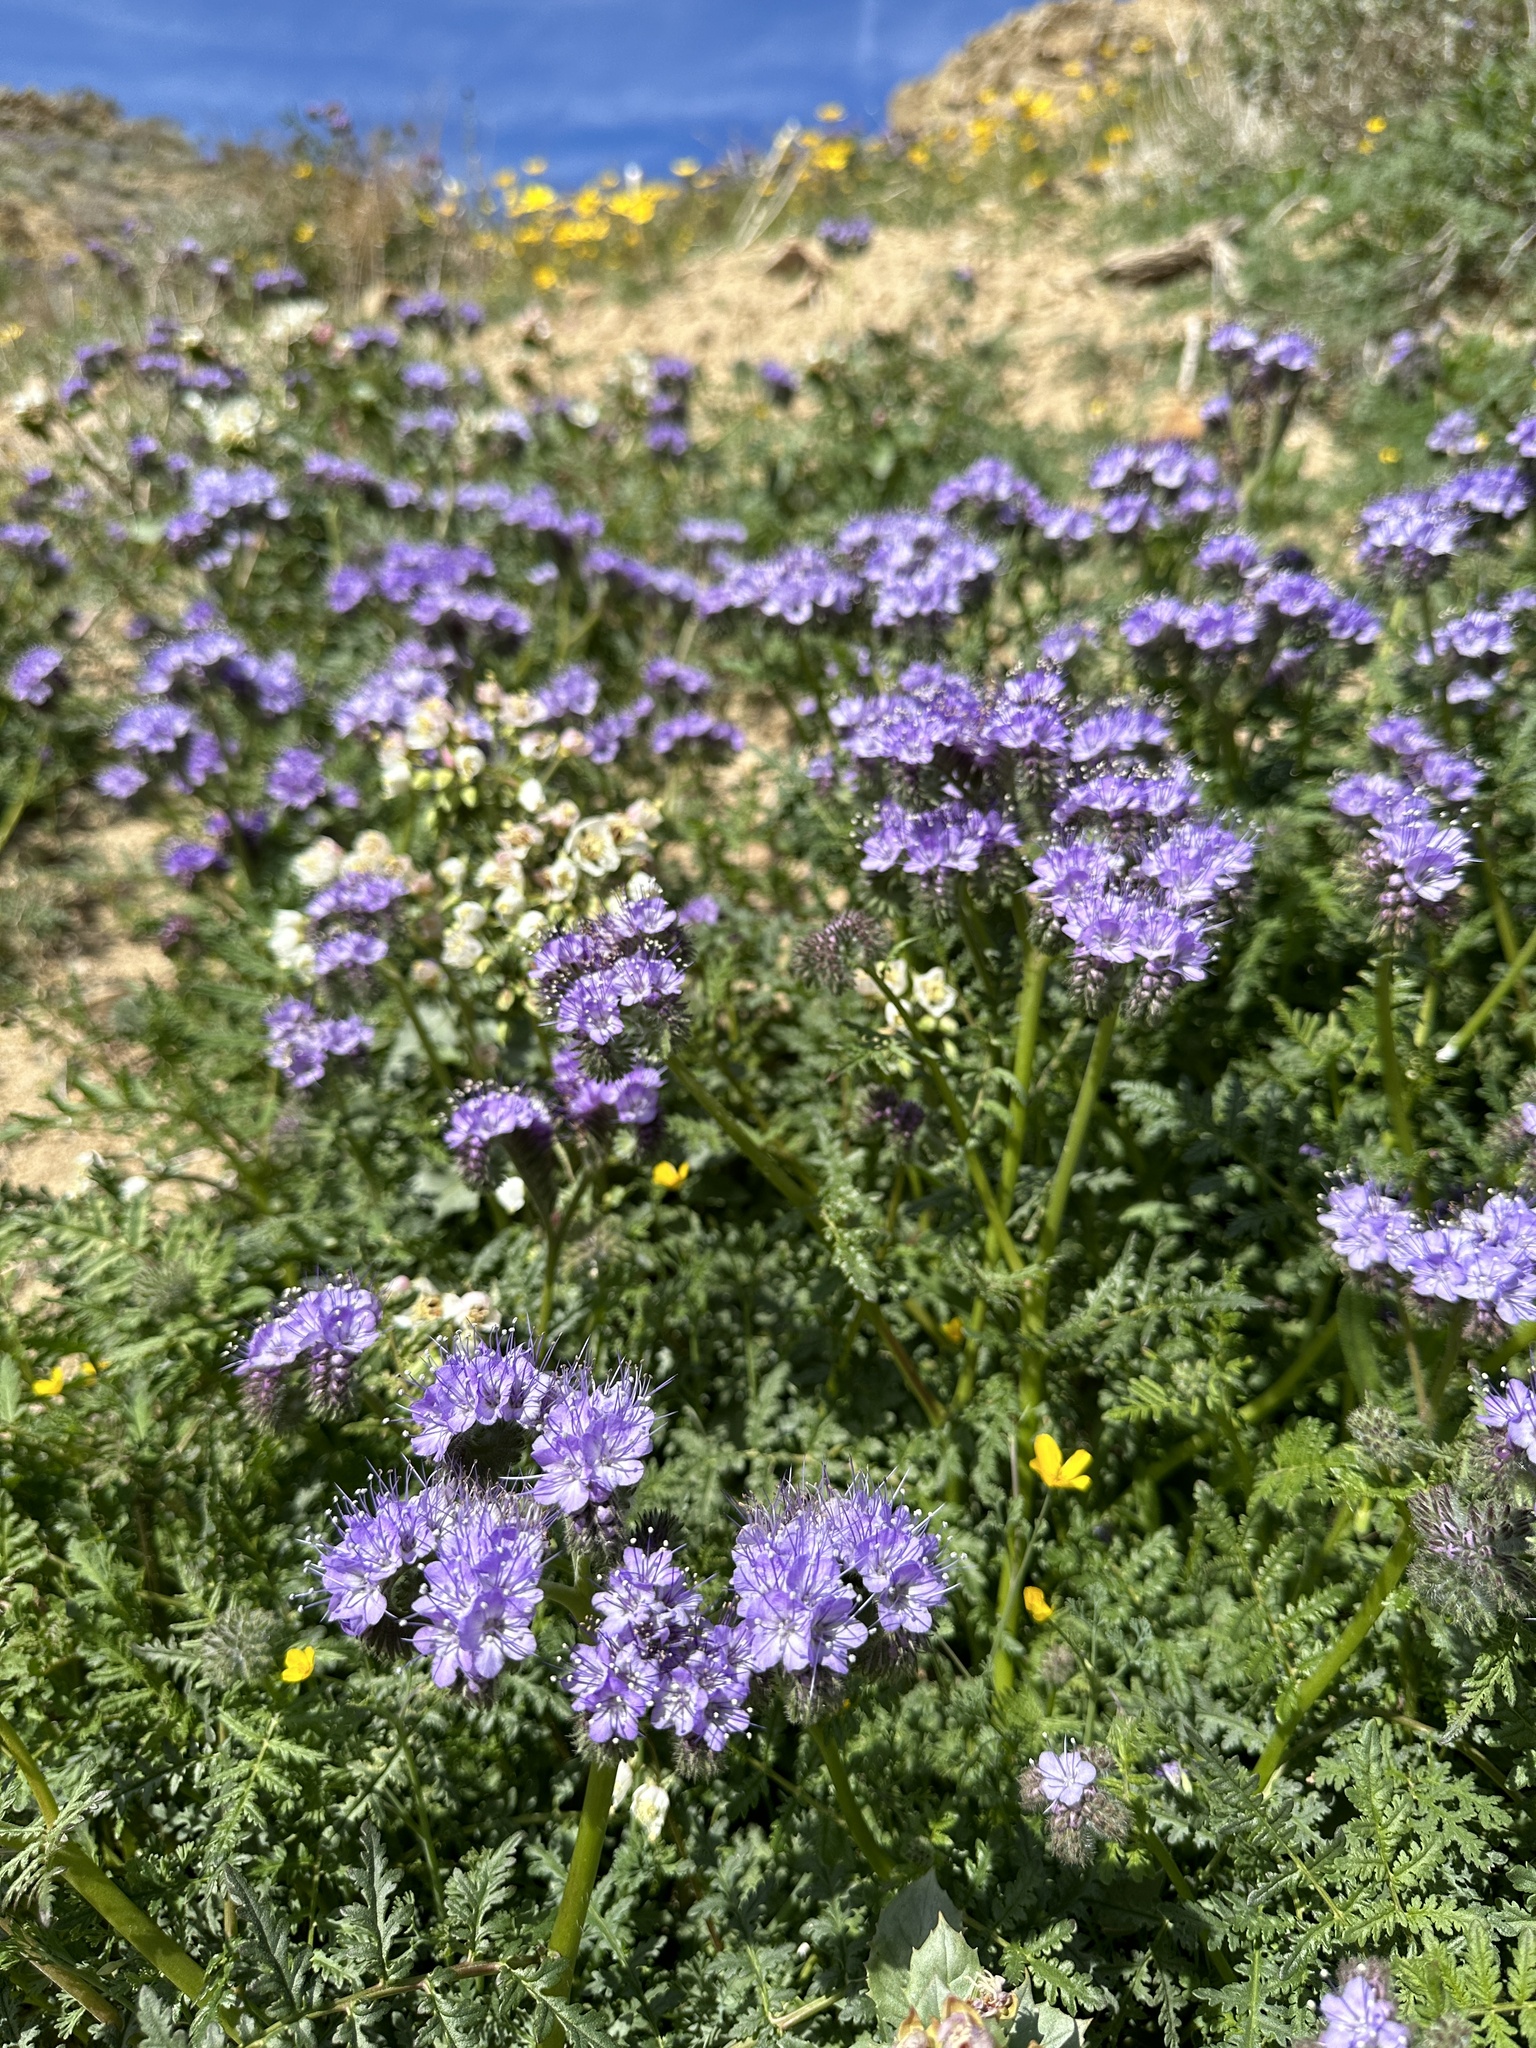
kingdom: Plantae
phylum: Tracheophyta
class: Magnoliopsida
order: Boraginales
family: Hydrophyllaceae
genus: Phacelia
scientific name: Phacelia tanacetifolia
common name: Phacelia
